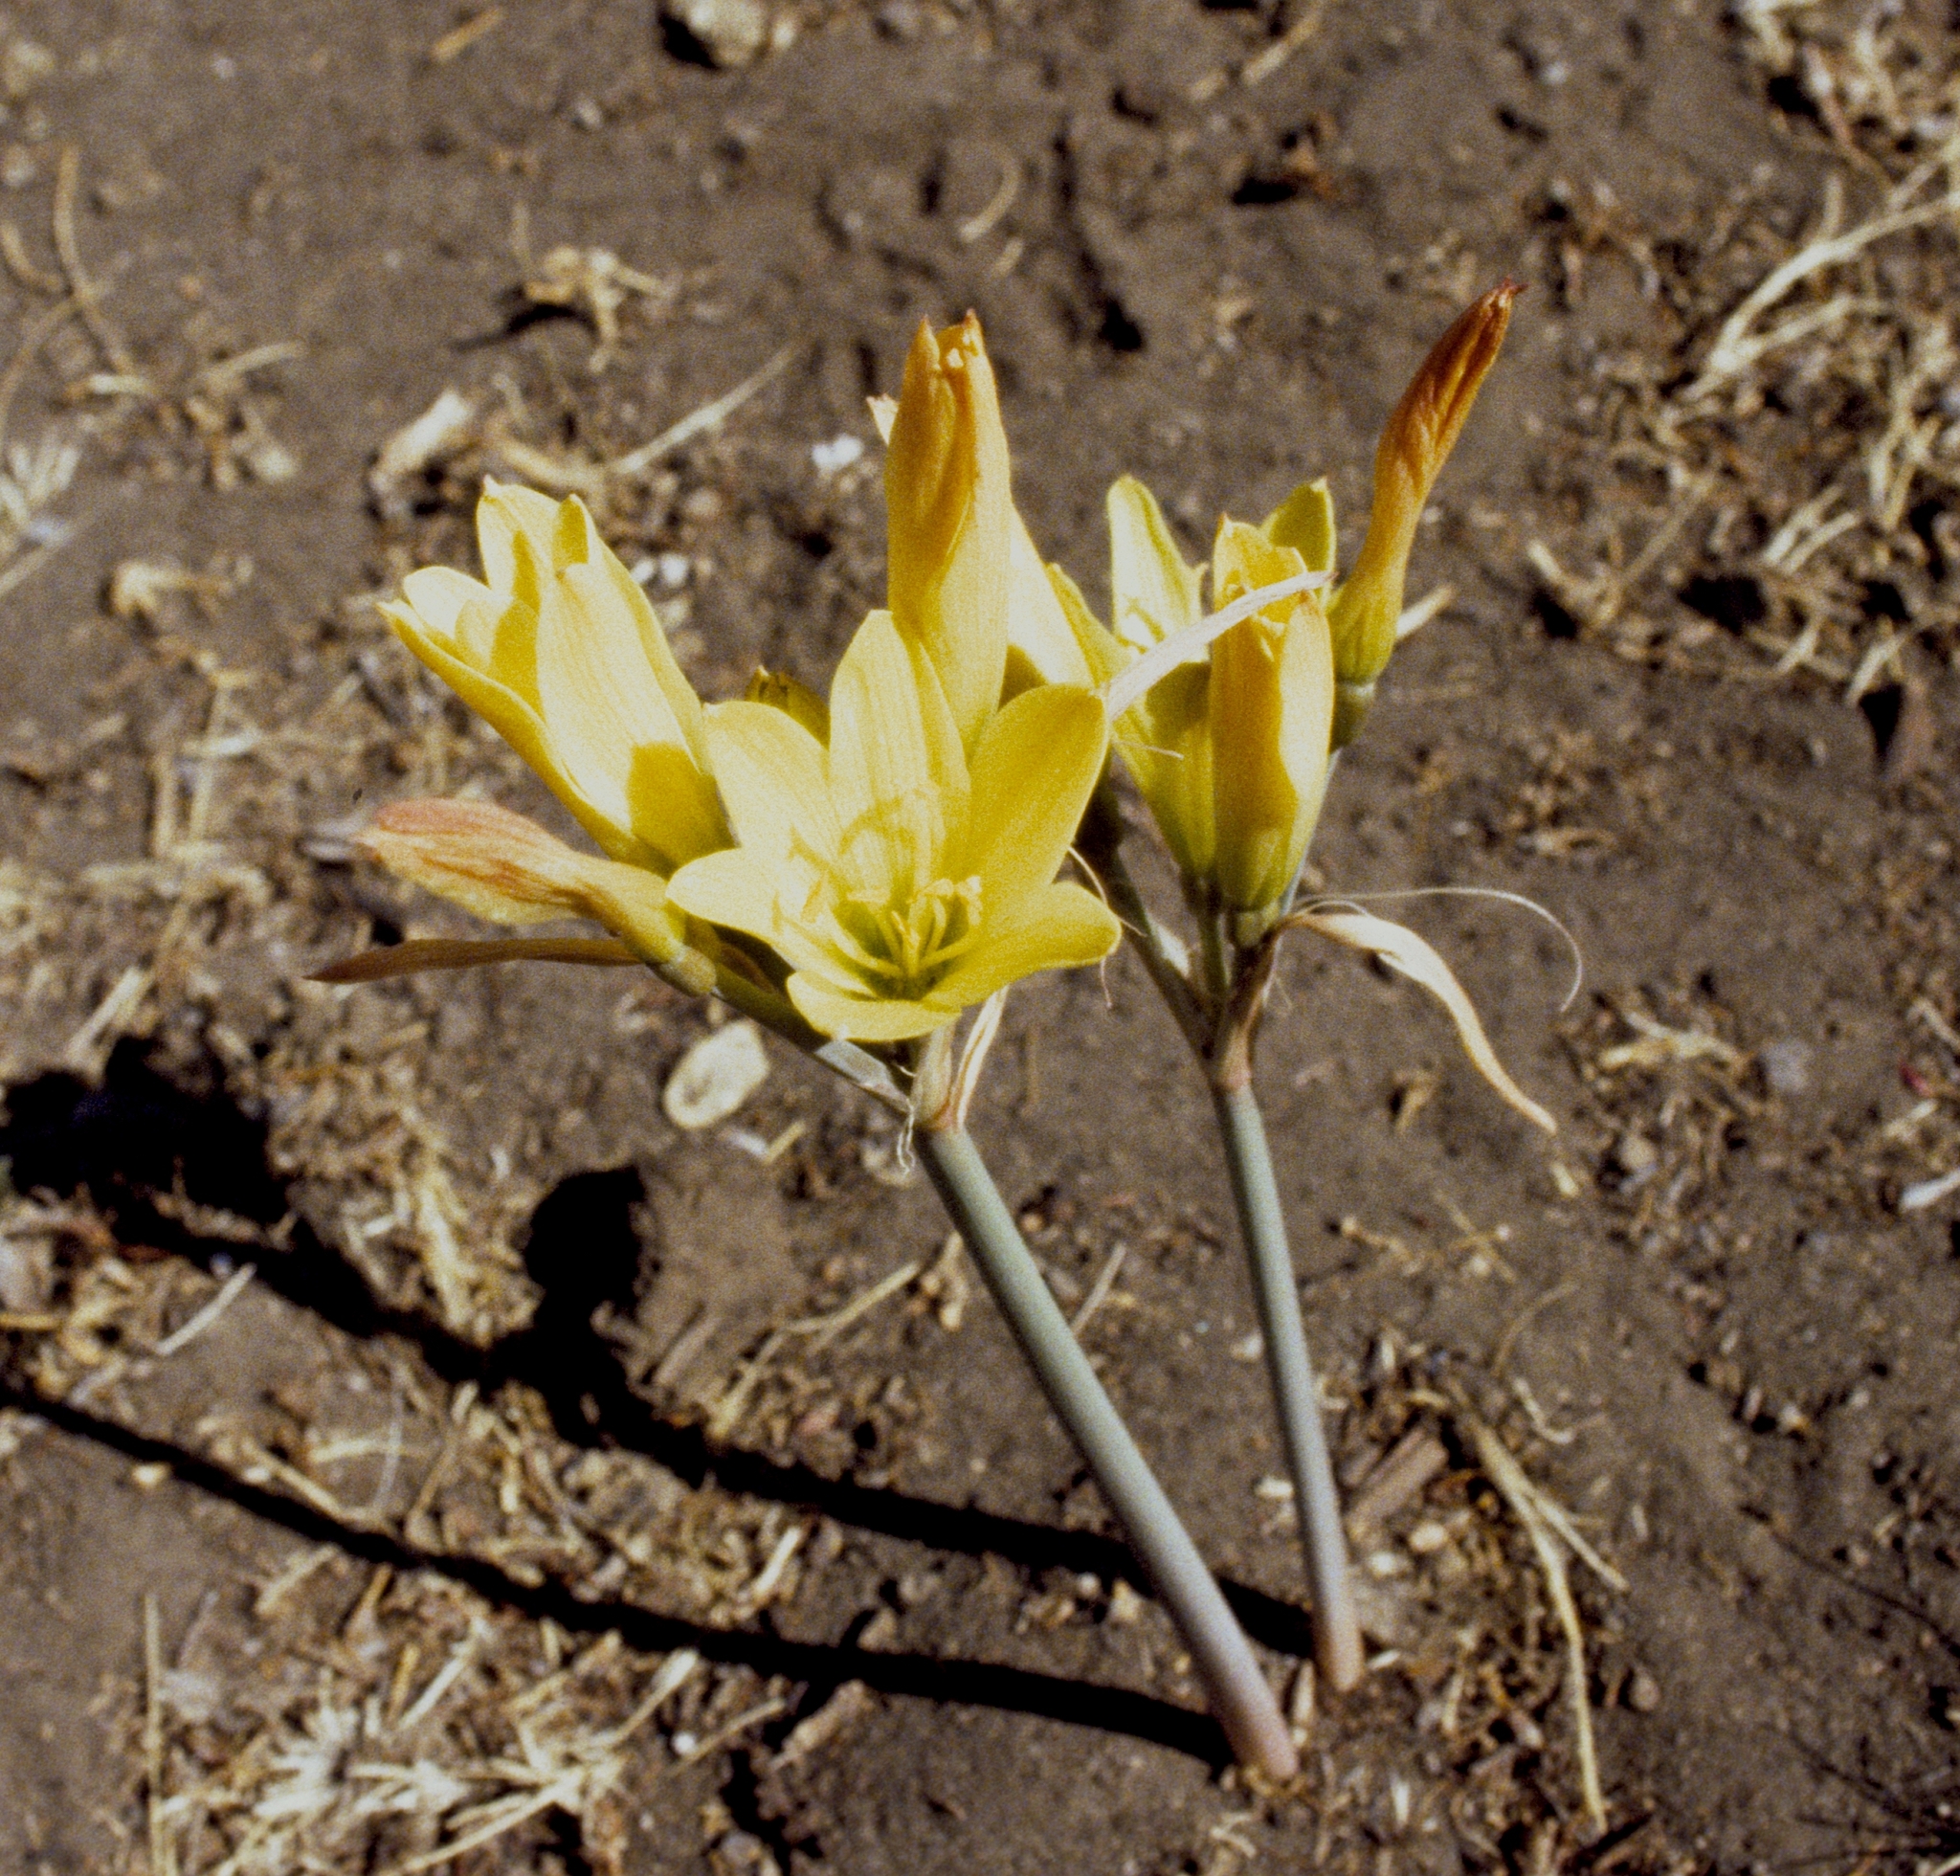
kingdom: Plantae
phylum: Tracheophyta
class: Liliopsida
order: Asparagales
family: Amaryllidaceae
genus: Zephyranthes
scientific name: Zephyranthes gilliesiana
